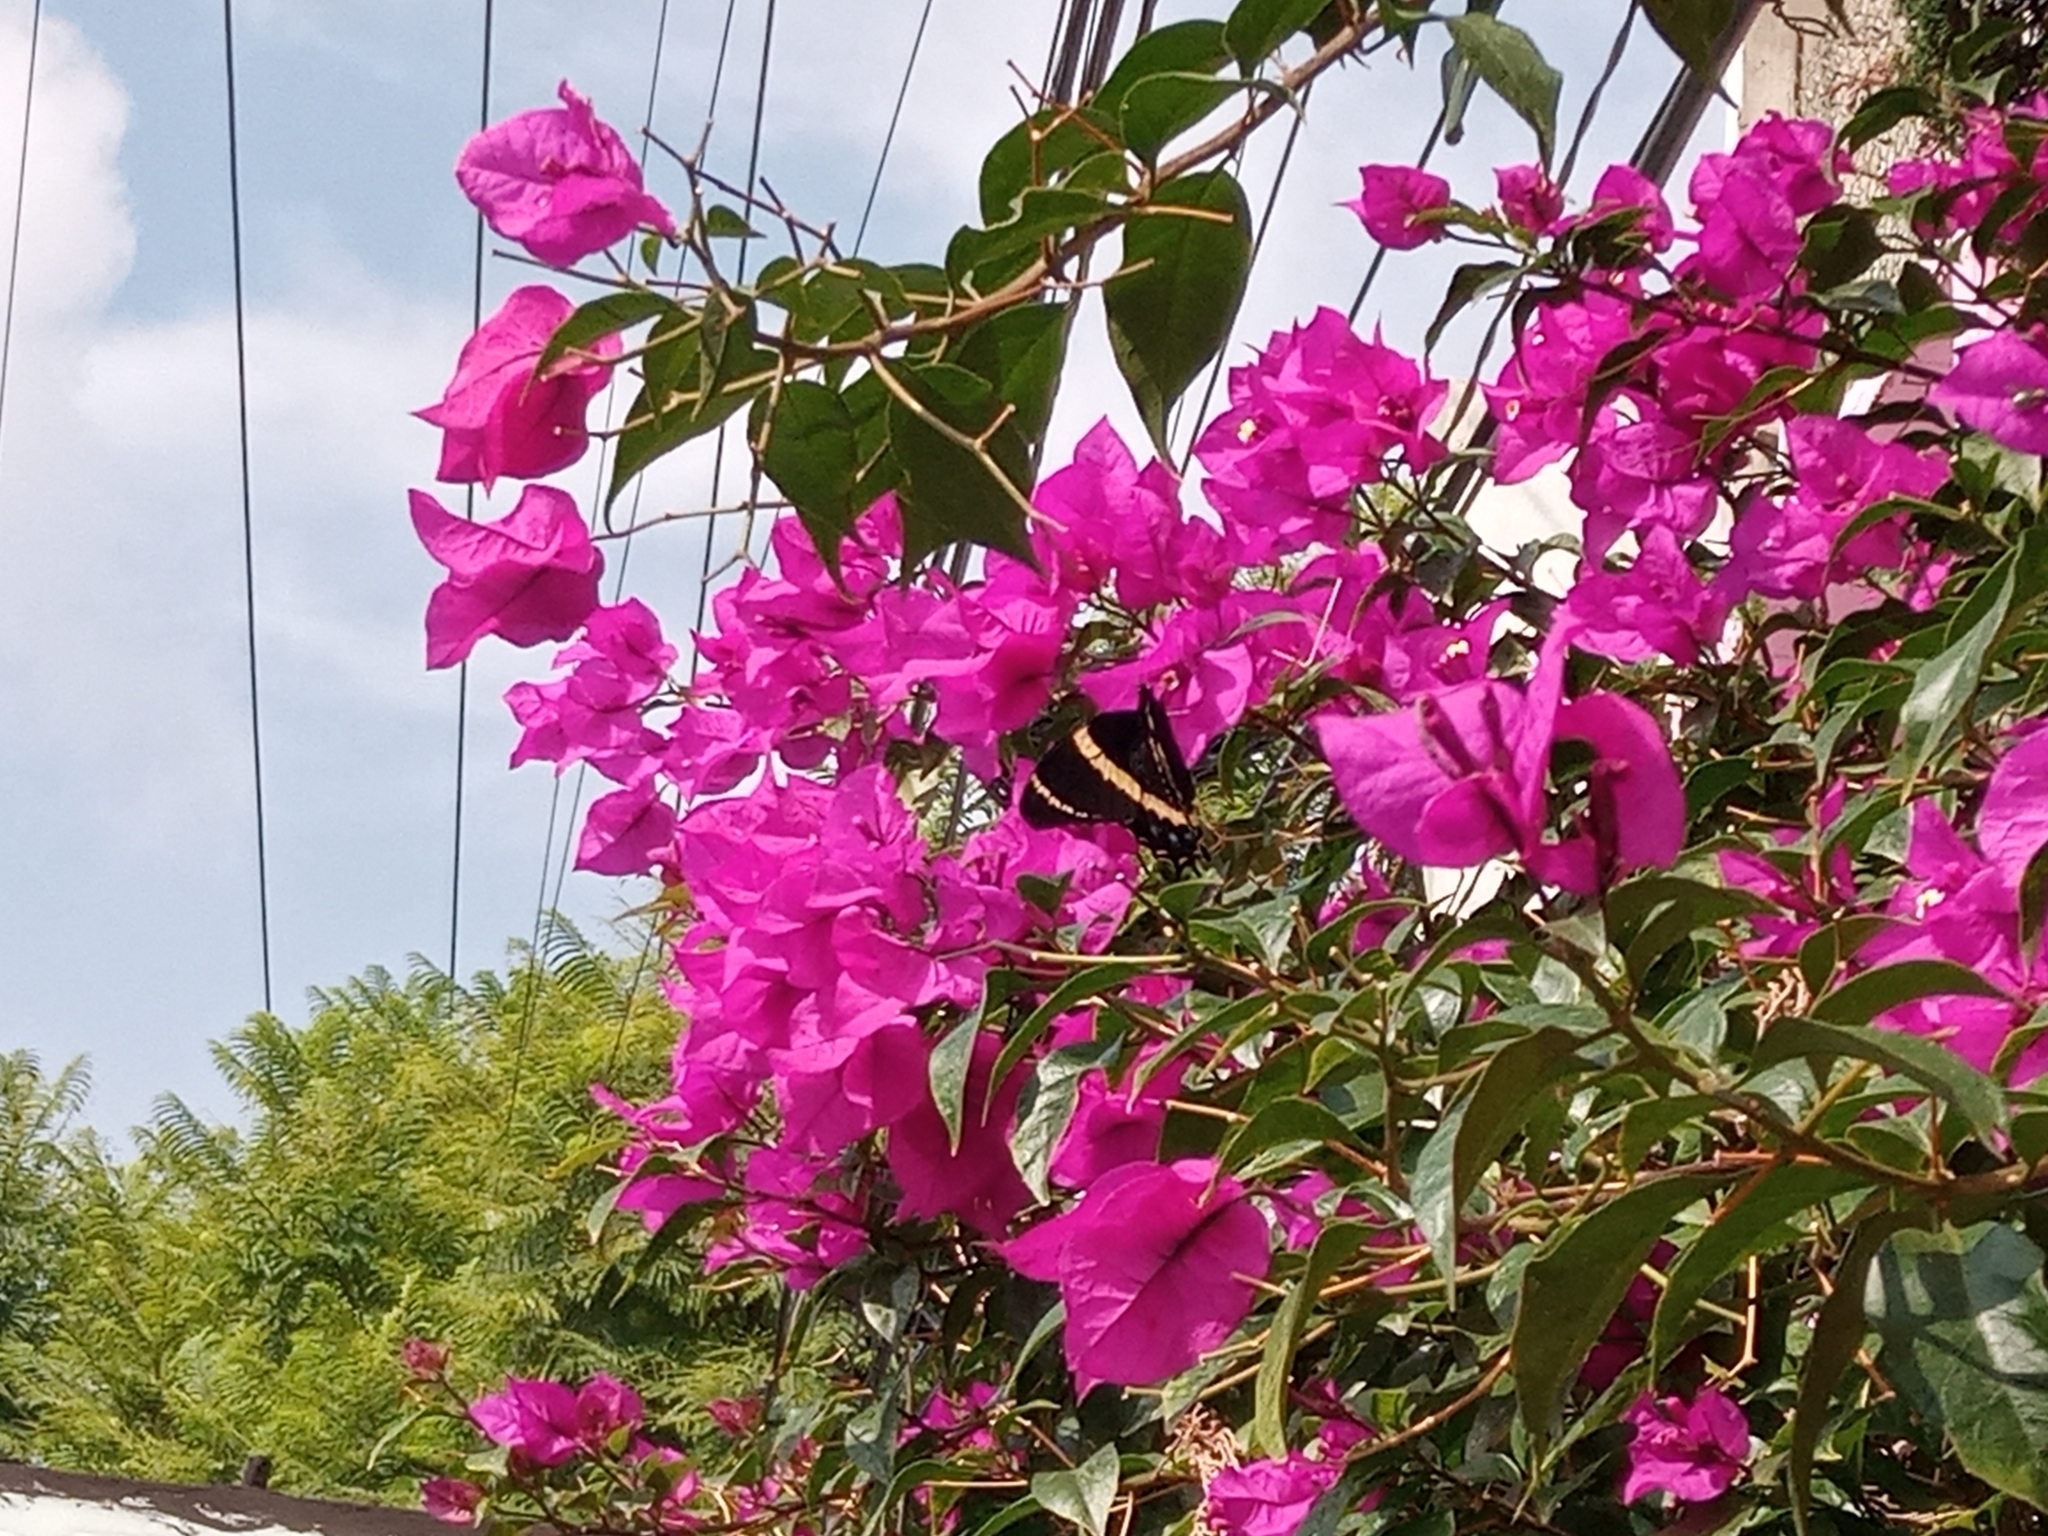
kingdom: Animalia
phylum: Arthropoda
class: Insecta
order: Lepidoptera
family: Papilionidae
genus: Papilio
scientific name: Papilio garamas
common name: Magnificent swallowtail
